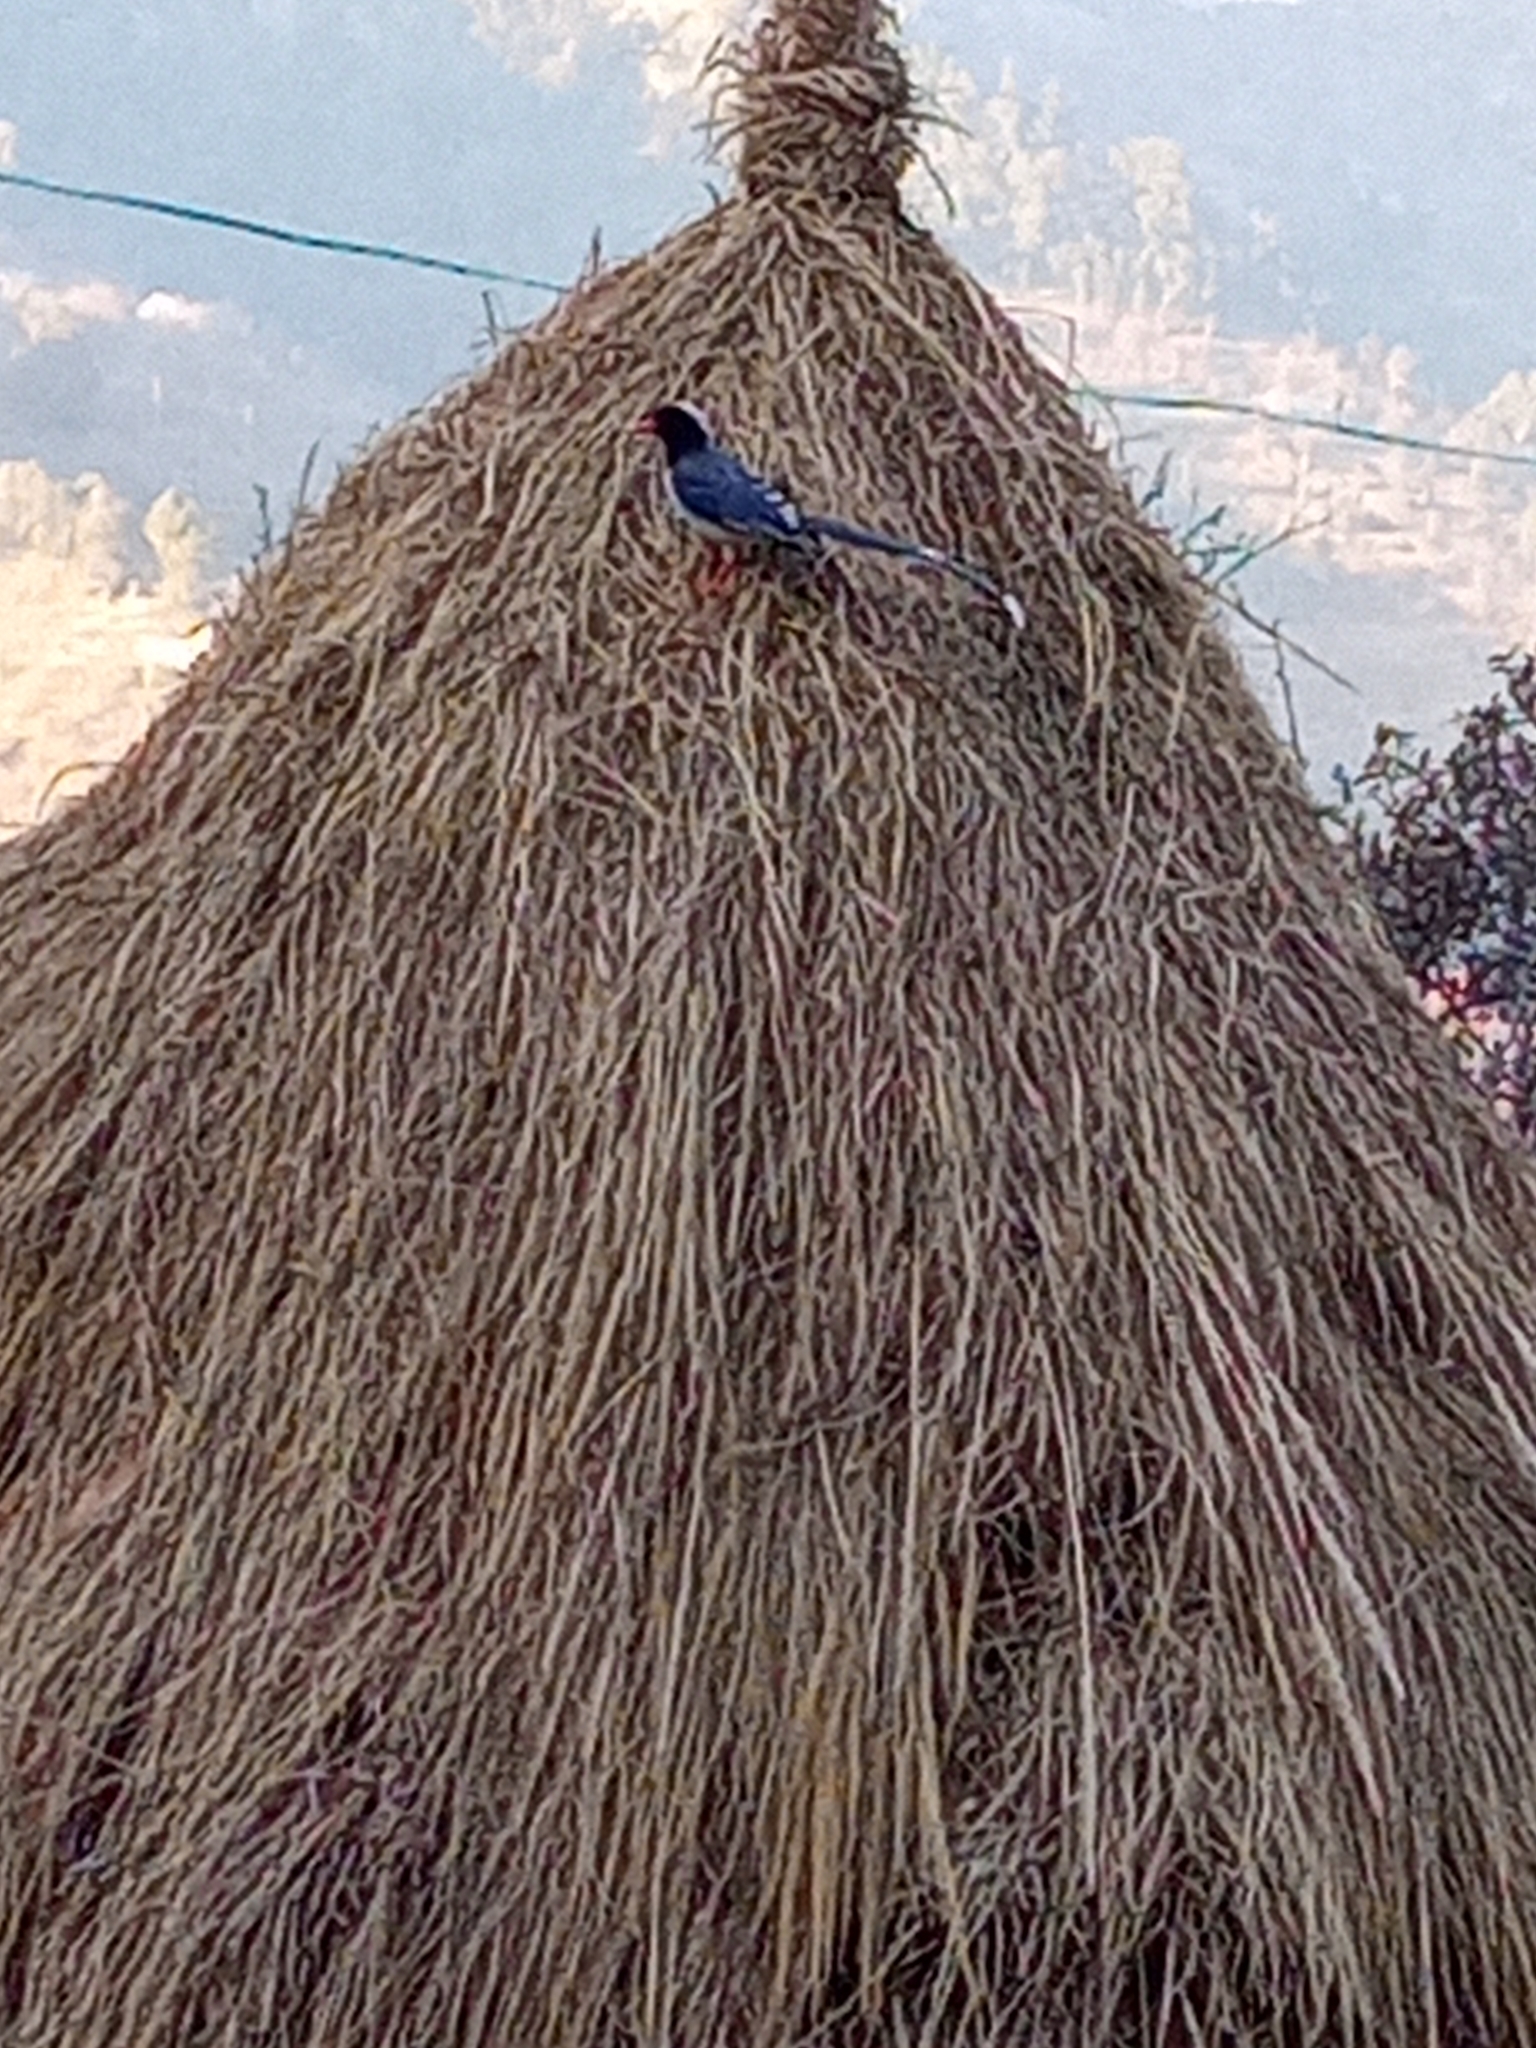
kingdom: Animalia
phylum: Chordata
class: Aves
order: Passeriformes
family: Corvidae
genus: Urocissa
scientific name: Urocissa erythroryncha
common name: Red-billed blue magpie
